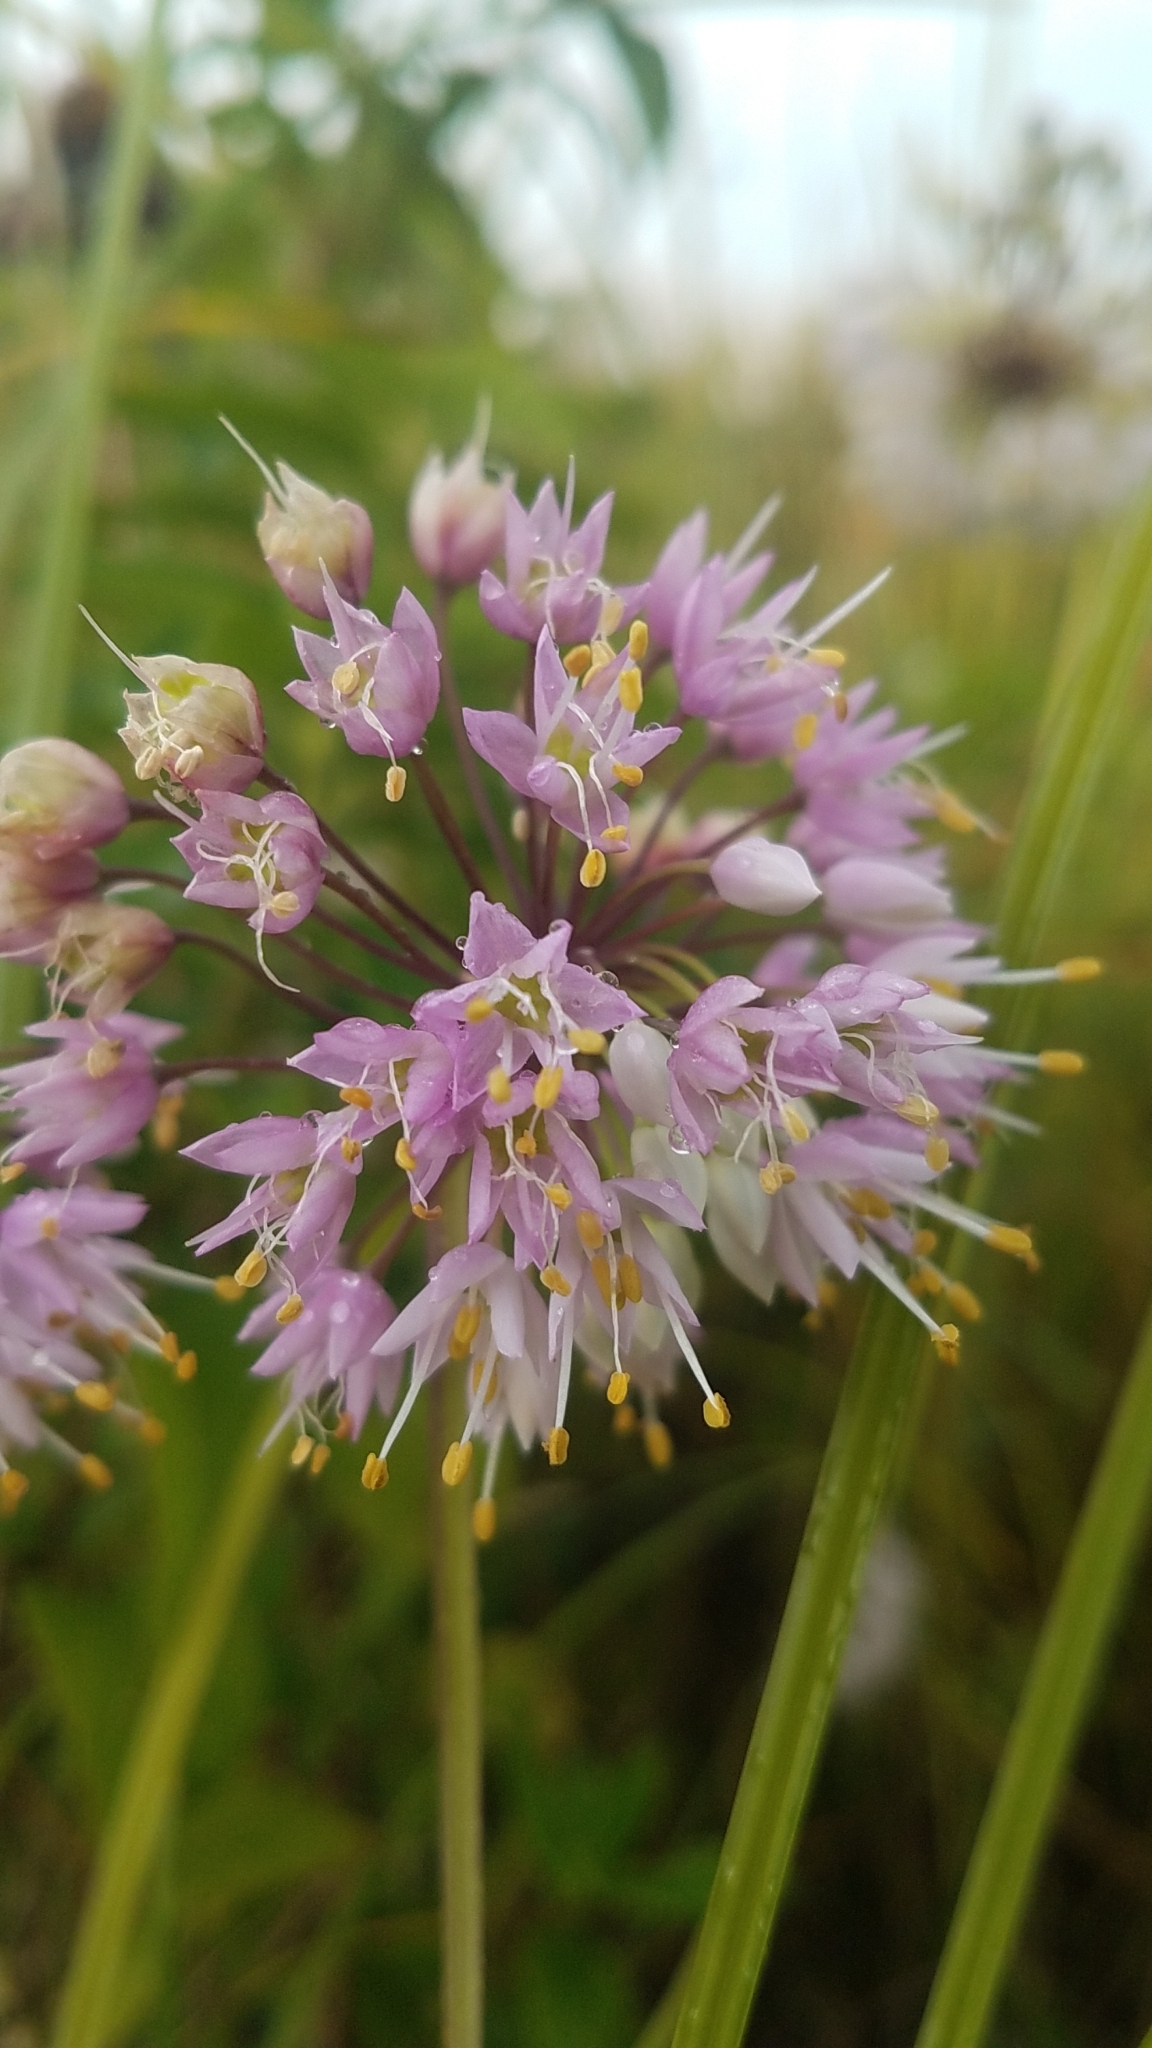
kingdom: Plantae
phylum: Tracheophyta
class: Liliopsida
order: Asparagales
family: Amaryllidaceae
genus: Allium
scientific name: Allium cernuum
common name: Nodding onion
